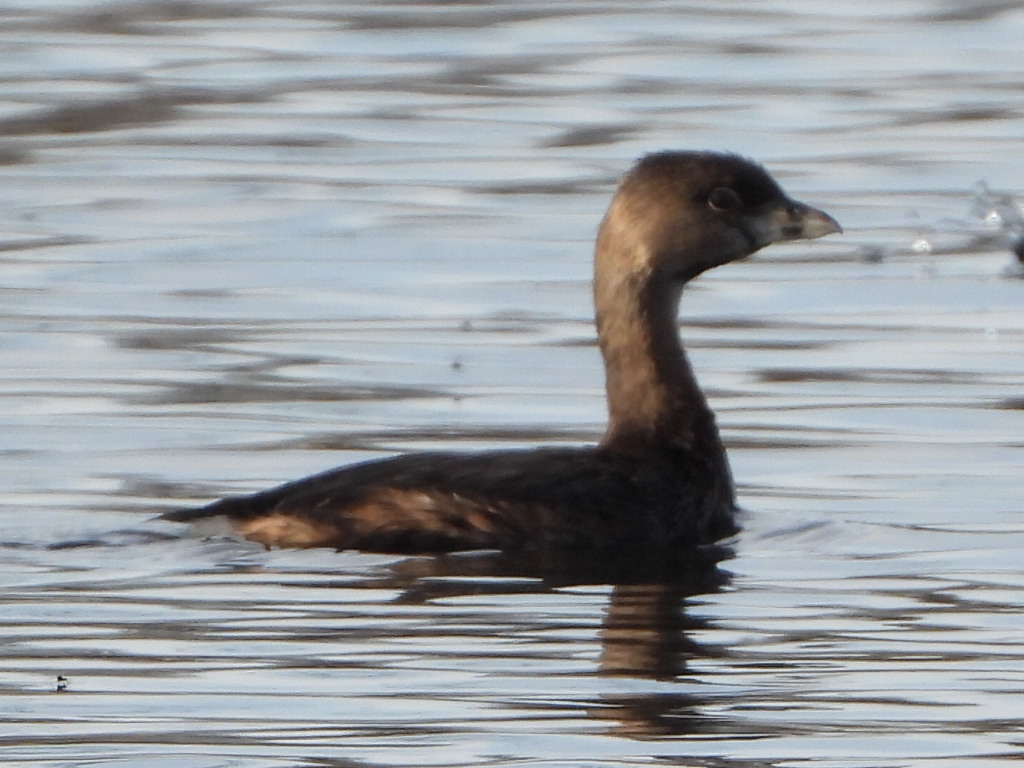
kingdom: Animalia
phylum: Chordata
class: Aves
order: Podicipediformes
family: Podicipedidae
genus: Podilymbus
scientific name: Podilymbus podiceps
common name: Pied-billed grebe
